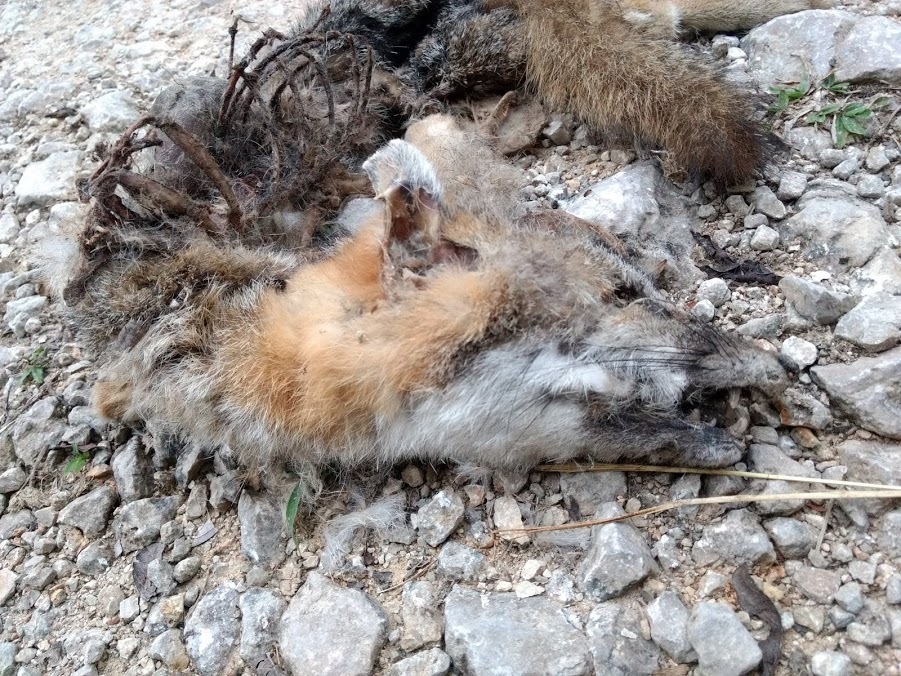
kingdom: Animalia
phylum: Chordata
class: Mammalia
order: Carnivora
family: Canidae
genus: Urocyon
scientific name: Urocyon cinereoargenteus
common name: Gray fox
